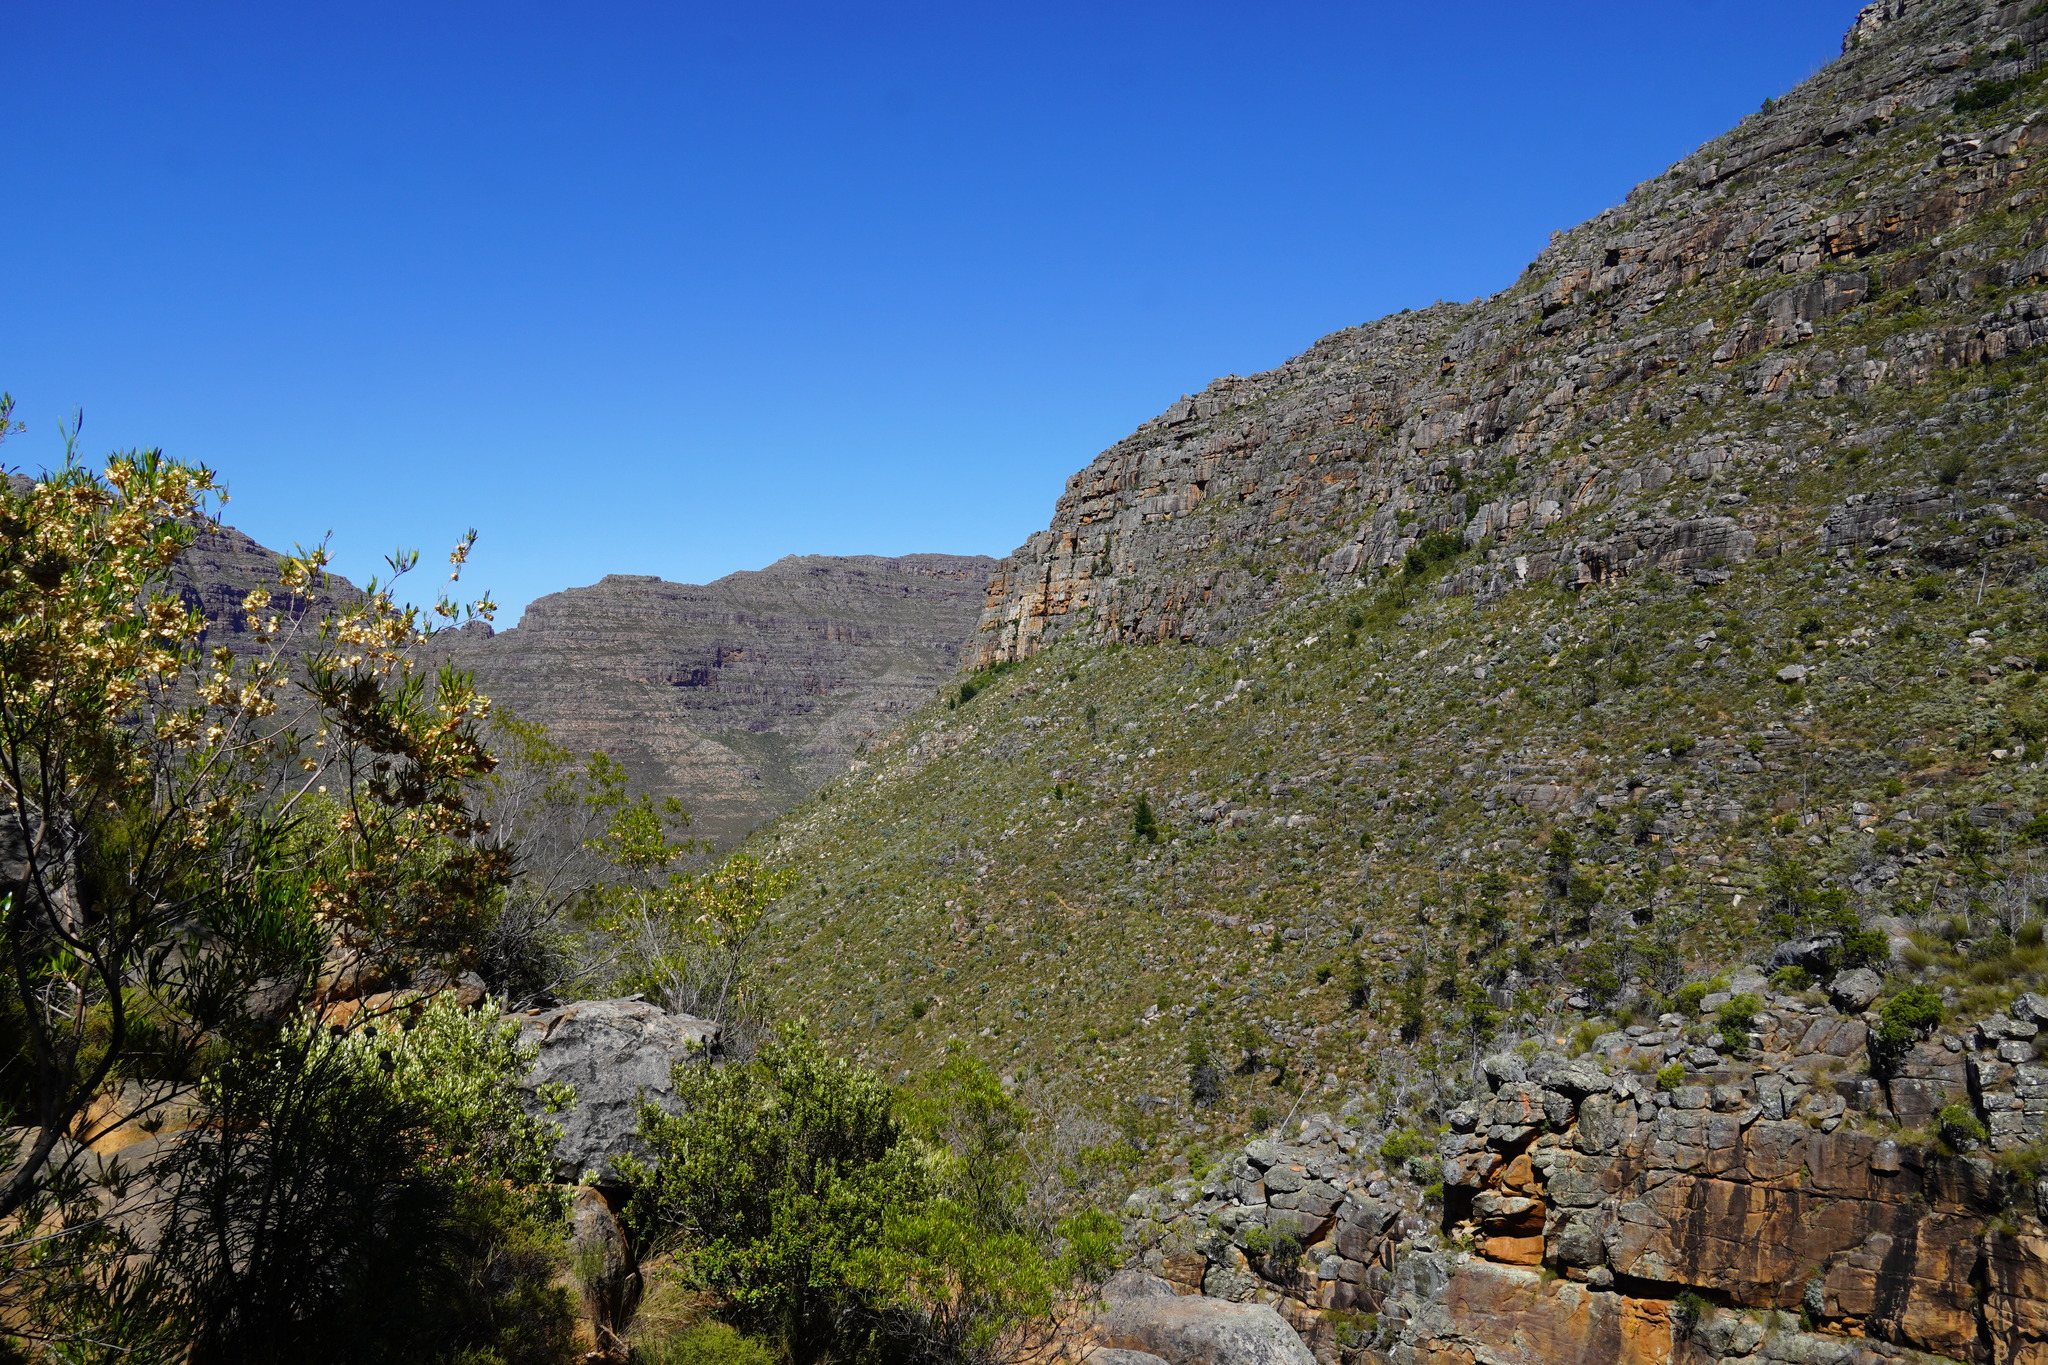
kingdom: Plantae
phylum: Tracheophyta
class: Pinopsida
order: Pinales
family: Cupressaceae
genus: Widdringtonia
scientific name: Widdringtonia nodiflora
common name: Cape cypress
